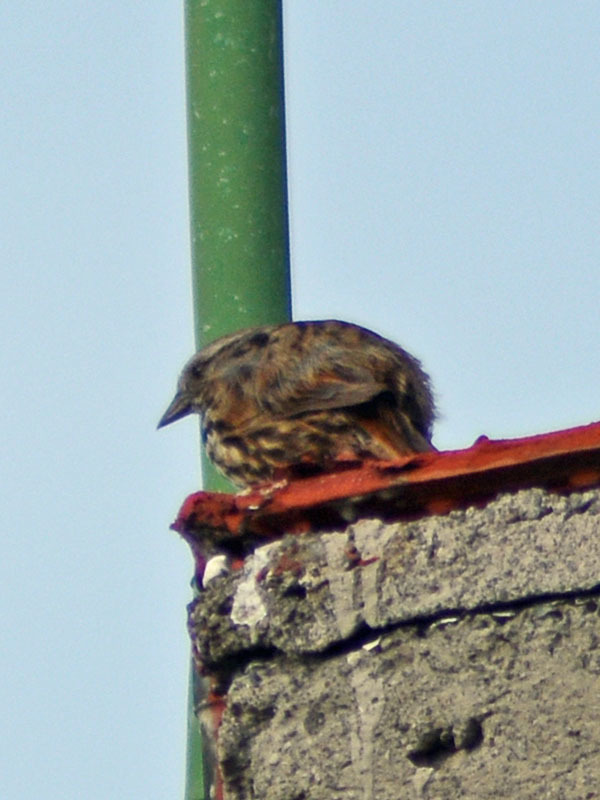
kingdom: Animalia
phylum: Chordata
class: Aves
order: Passeriformes
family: Passerellidae
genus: Melospiza
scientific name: Melospiza melodia
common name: Song sparrow
